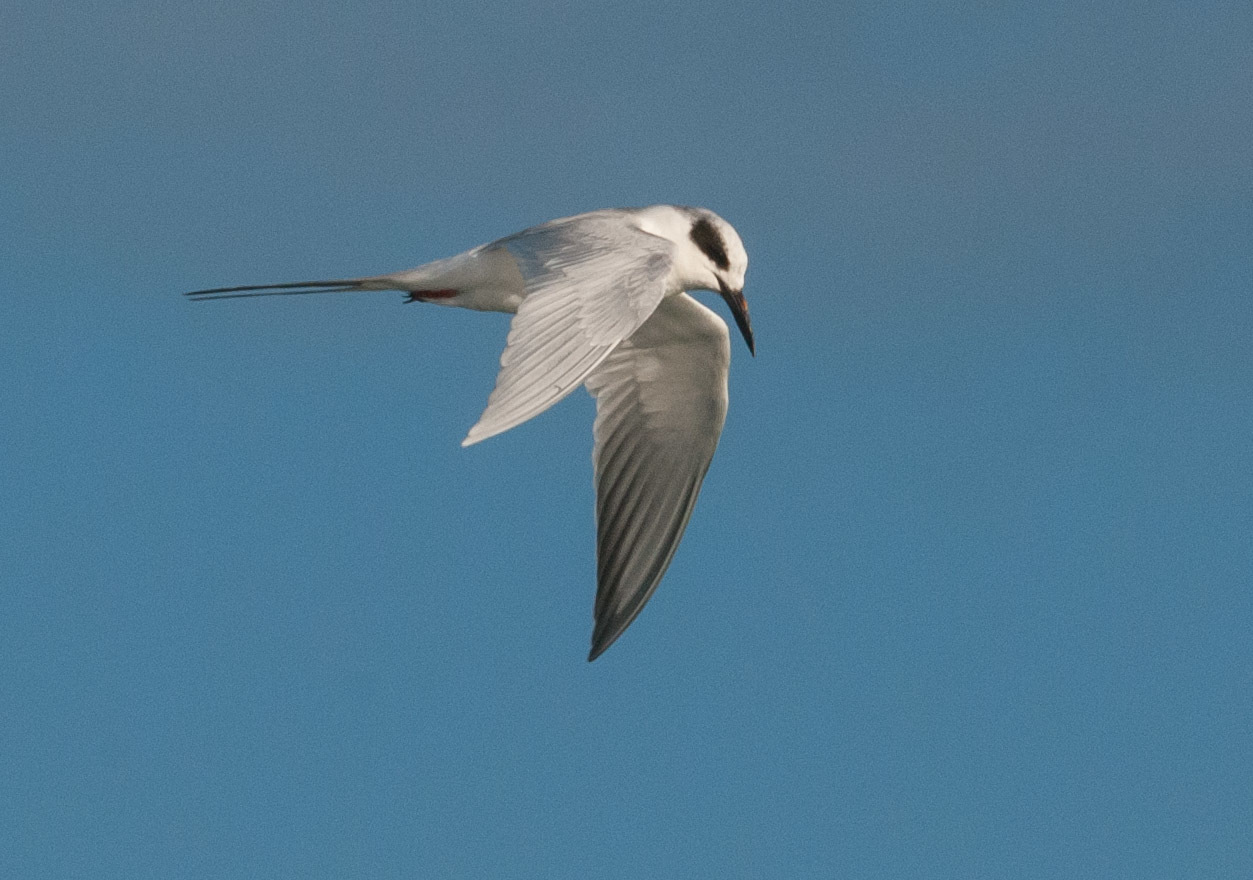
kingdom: Animalia
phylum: Chordata
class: Aves
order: Charadriiformes
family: Laridae
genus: Sterna
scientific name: Sterna forsteri
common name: Forster's tern
